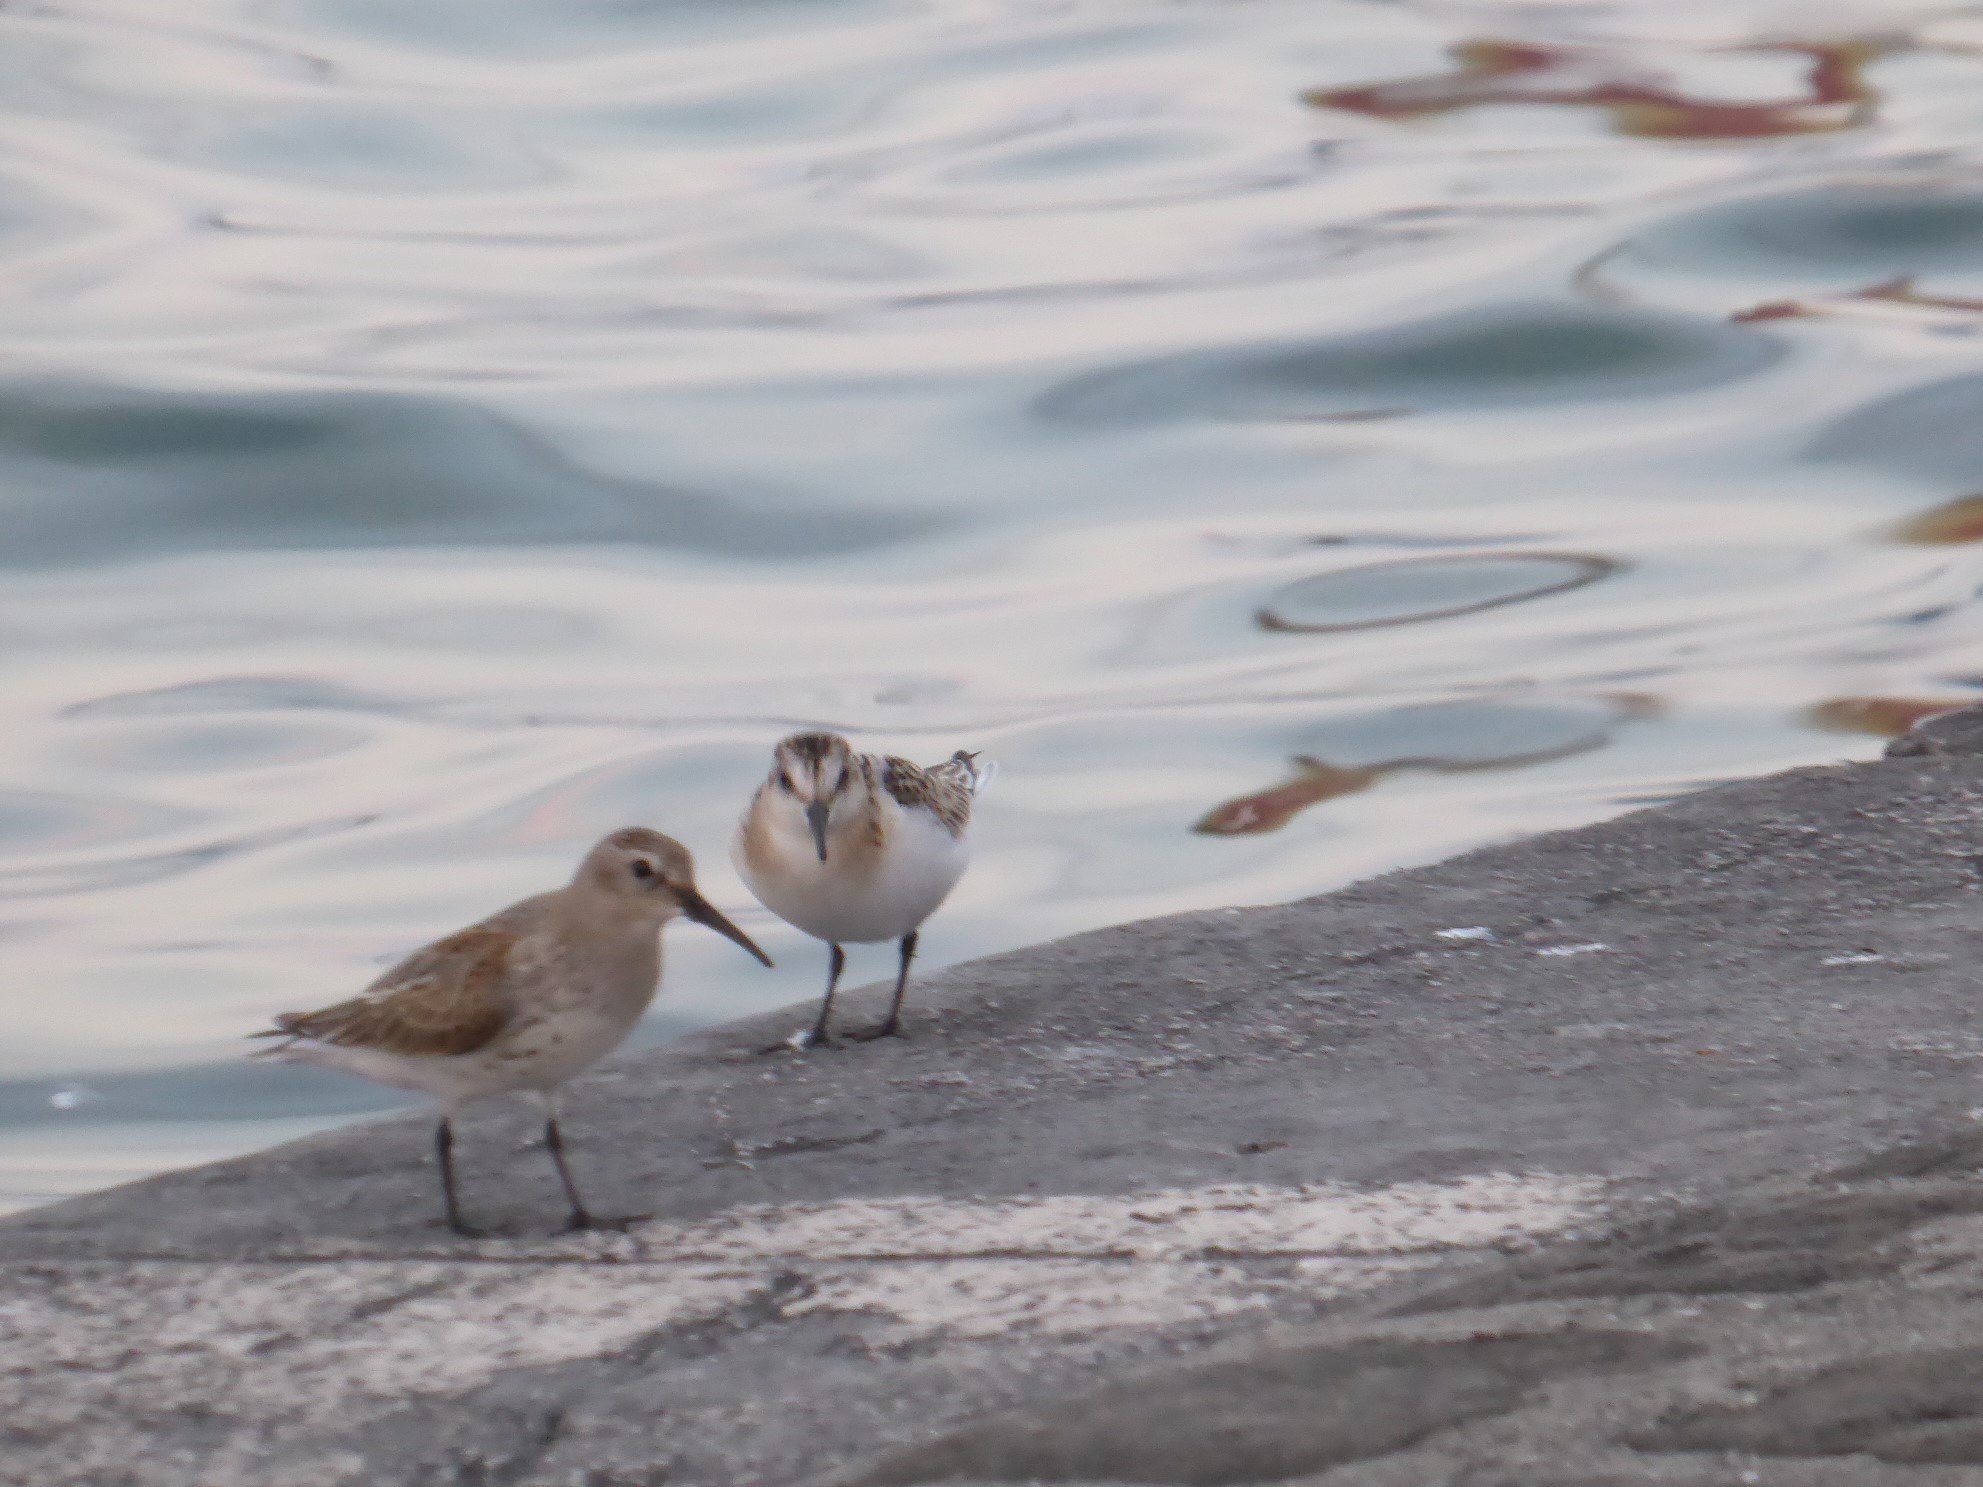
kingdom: Animalia
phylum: Chordata
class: Aves
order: Charadriiformes
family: Scolopacidae
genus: Calidris
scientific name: Calidris alpina
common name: Dunlin
